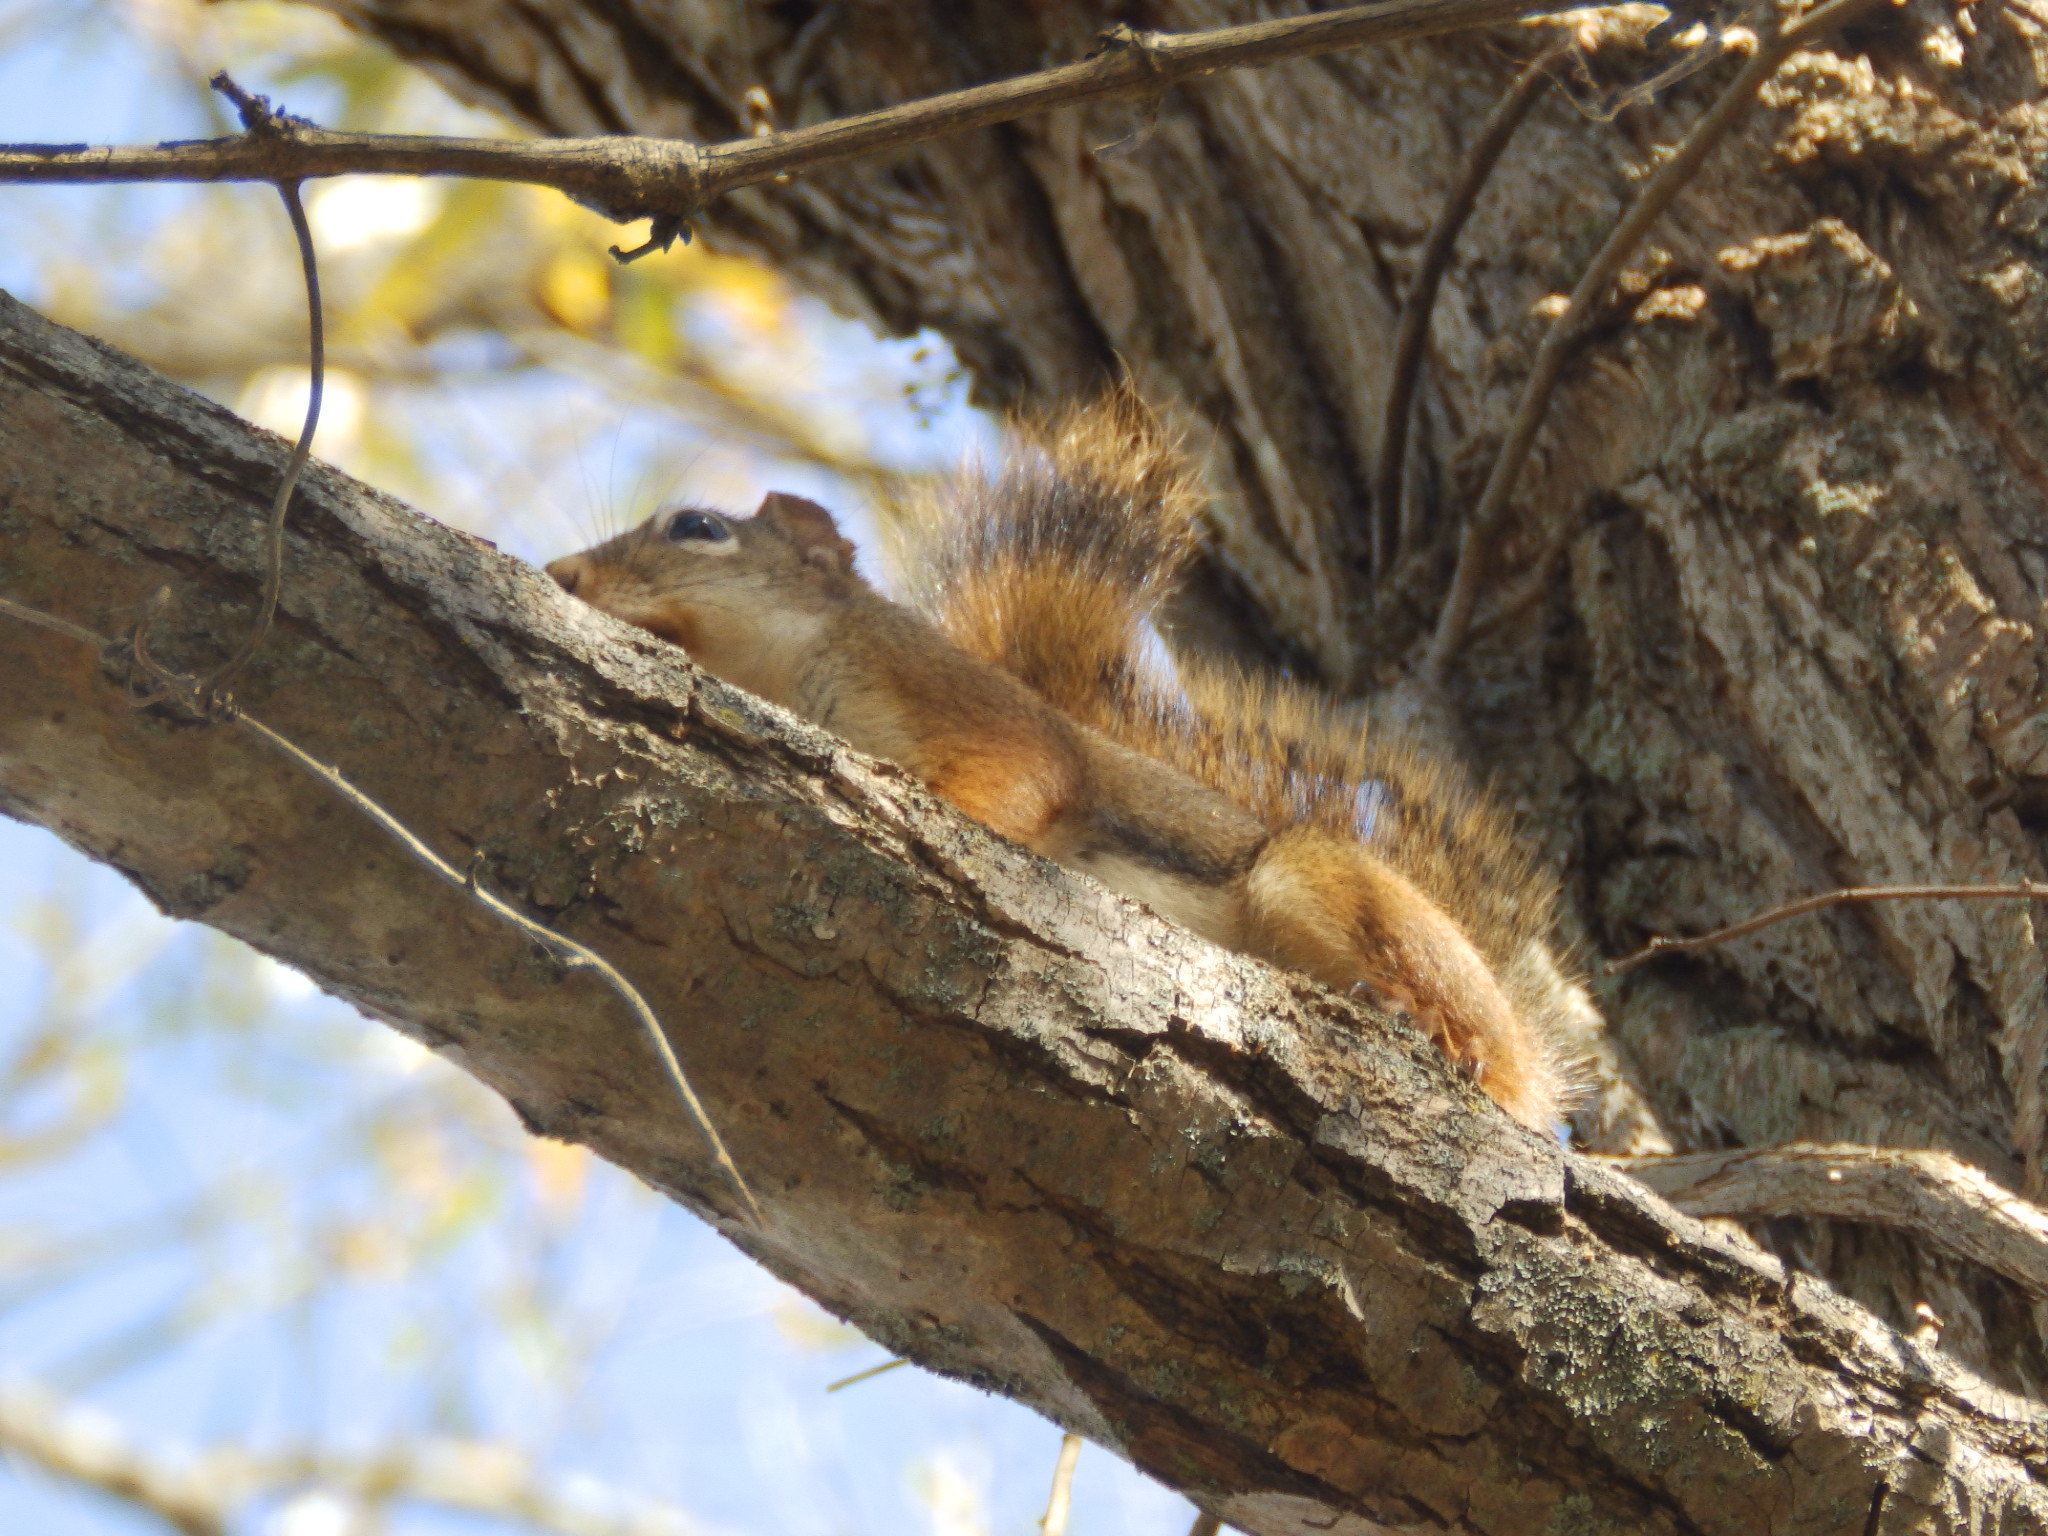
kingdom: Animalia
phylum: Chordata
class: Mammalia
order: Rodentia
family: Sciuridae
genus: Tamiasciurus
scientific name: Tamiasciurus hudsonicus
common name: Red squirrel
